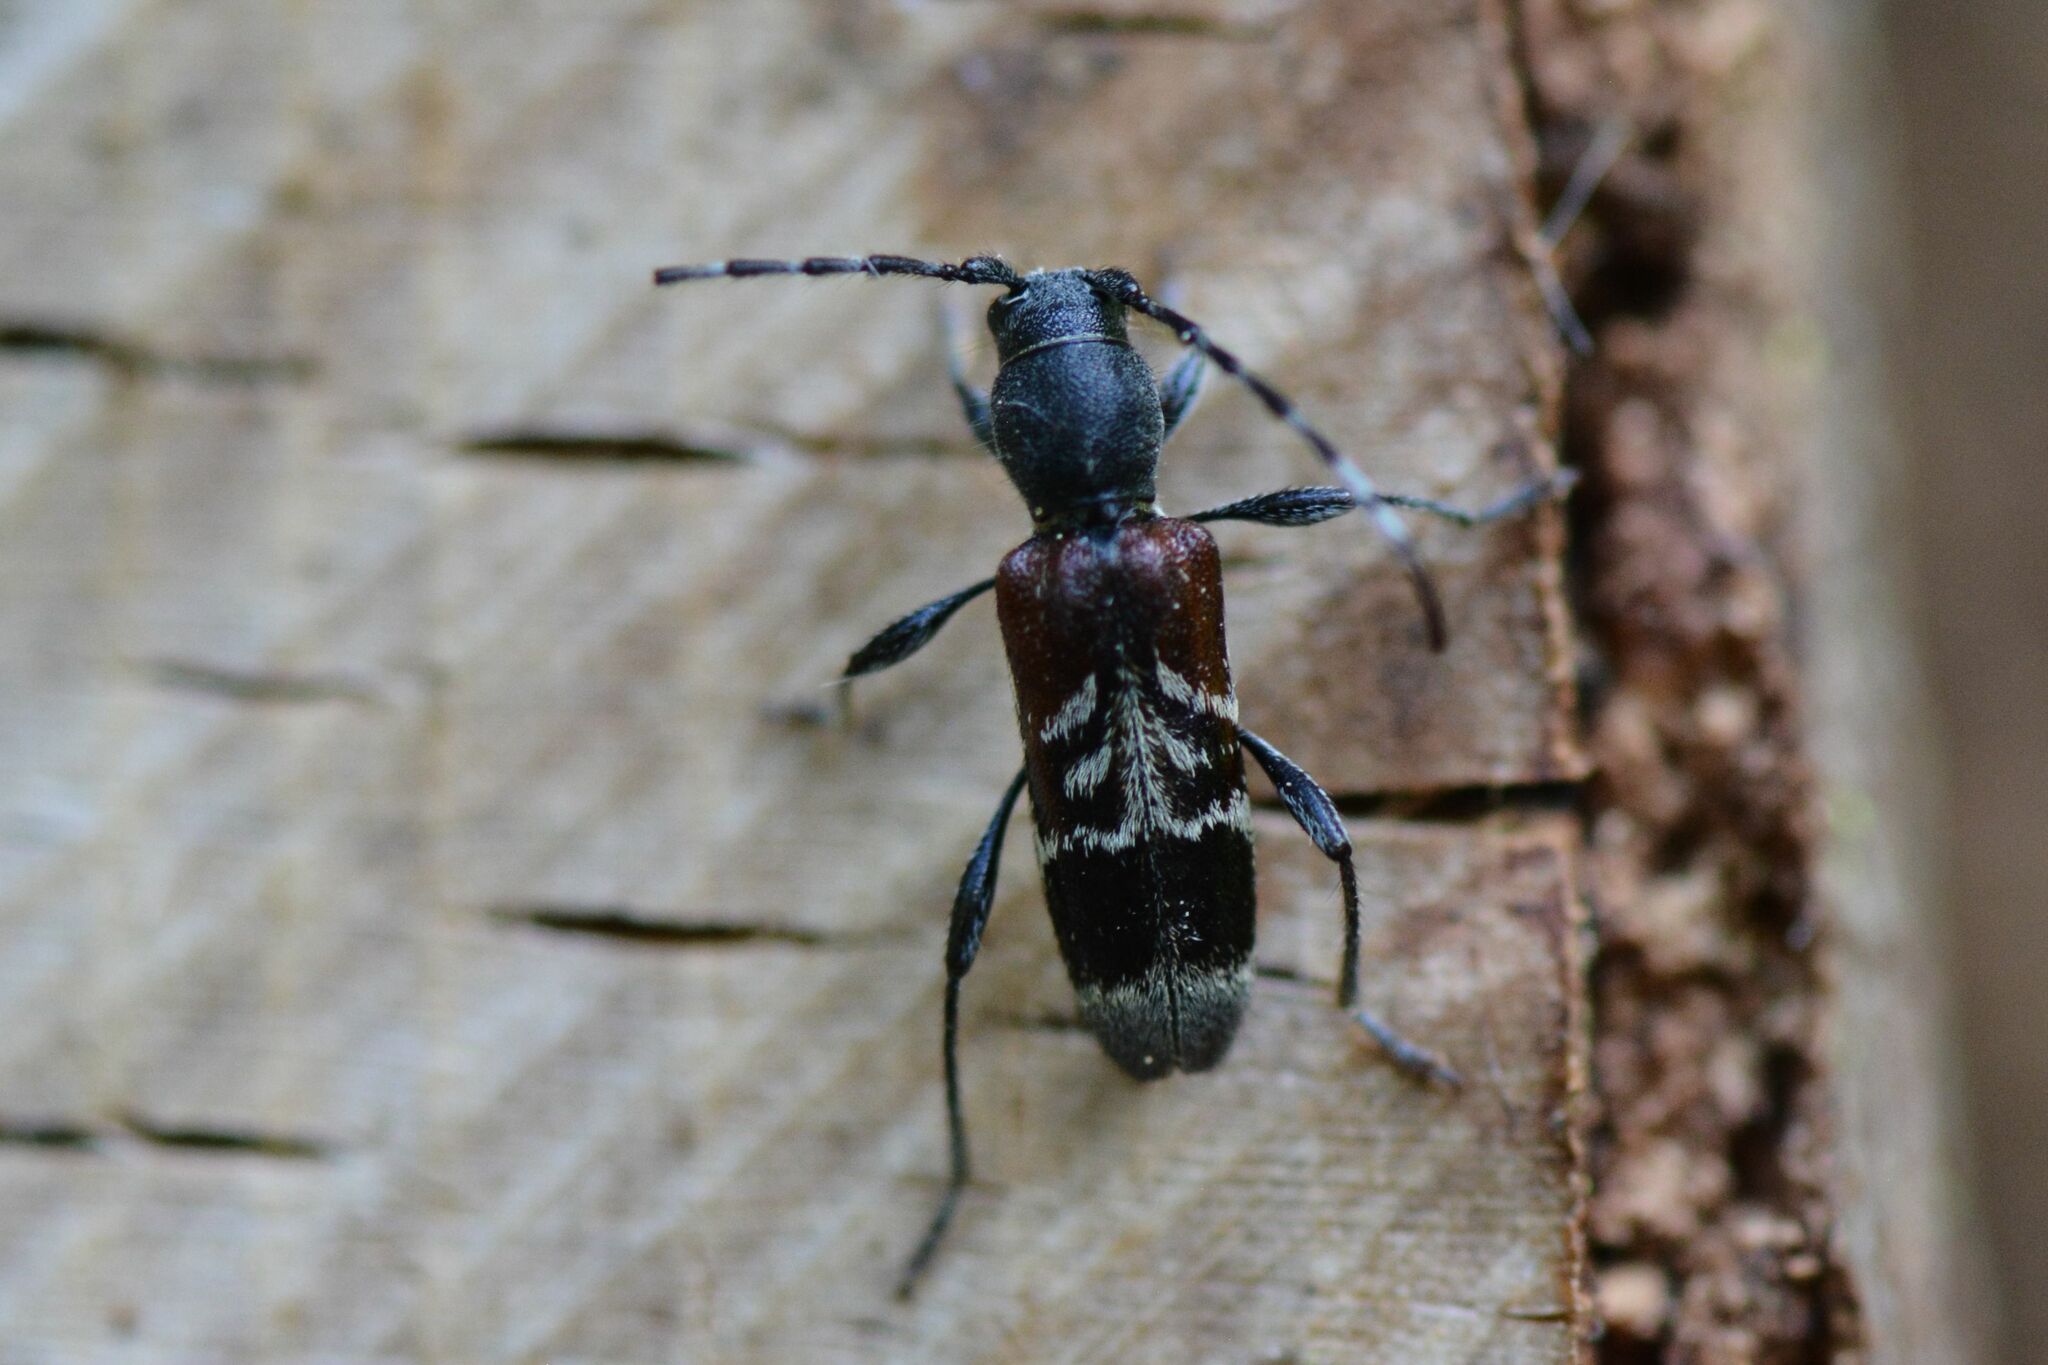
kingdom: Animalia
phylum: Arthropoda
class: Insecta
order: Coleoptera
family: Cerambycidae
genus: Anaglyptus
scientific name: Anaglyptus mysticus
